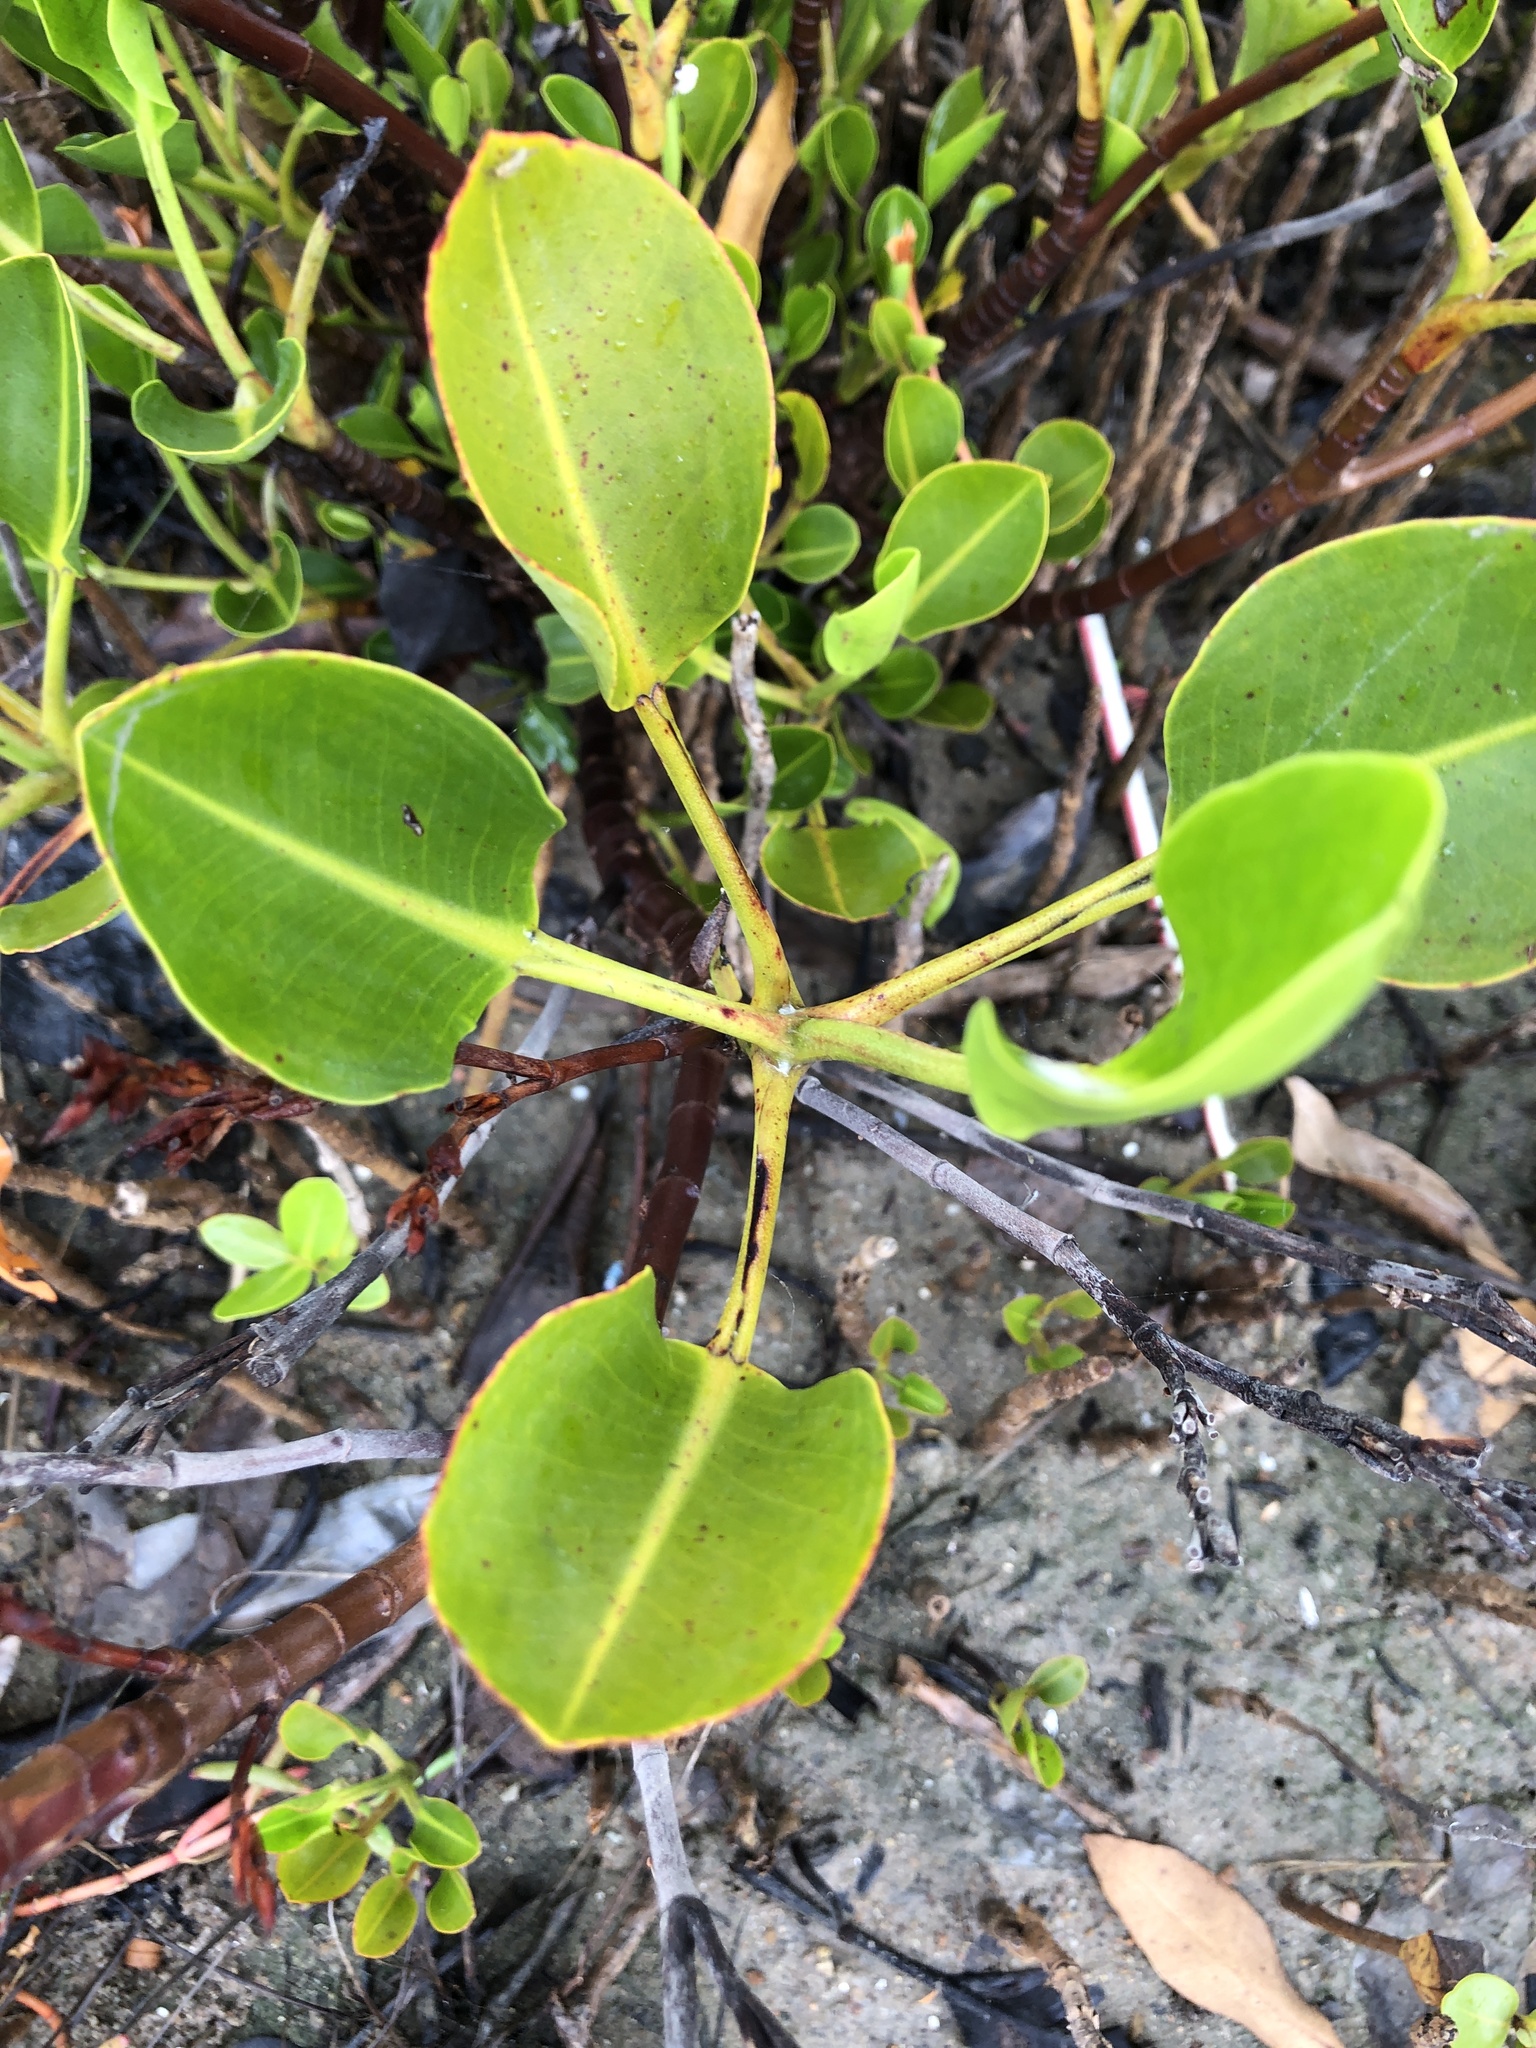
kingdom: Plantae
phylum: Tracheophyta
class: Magnoliopsida
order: Caryophyllales
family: Plumbaginaceae
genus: Aegialitis
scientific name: Aegialitis annulata
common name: Club mangrove
